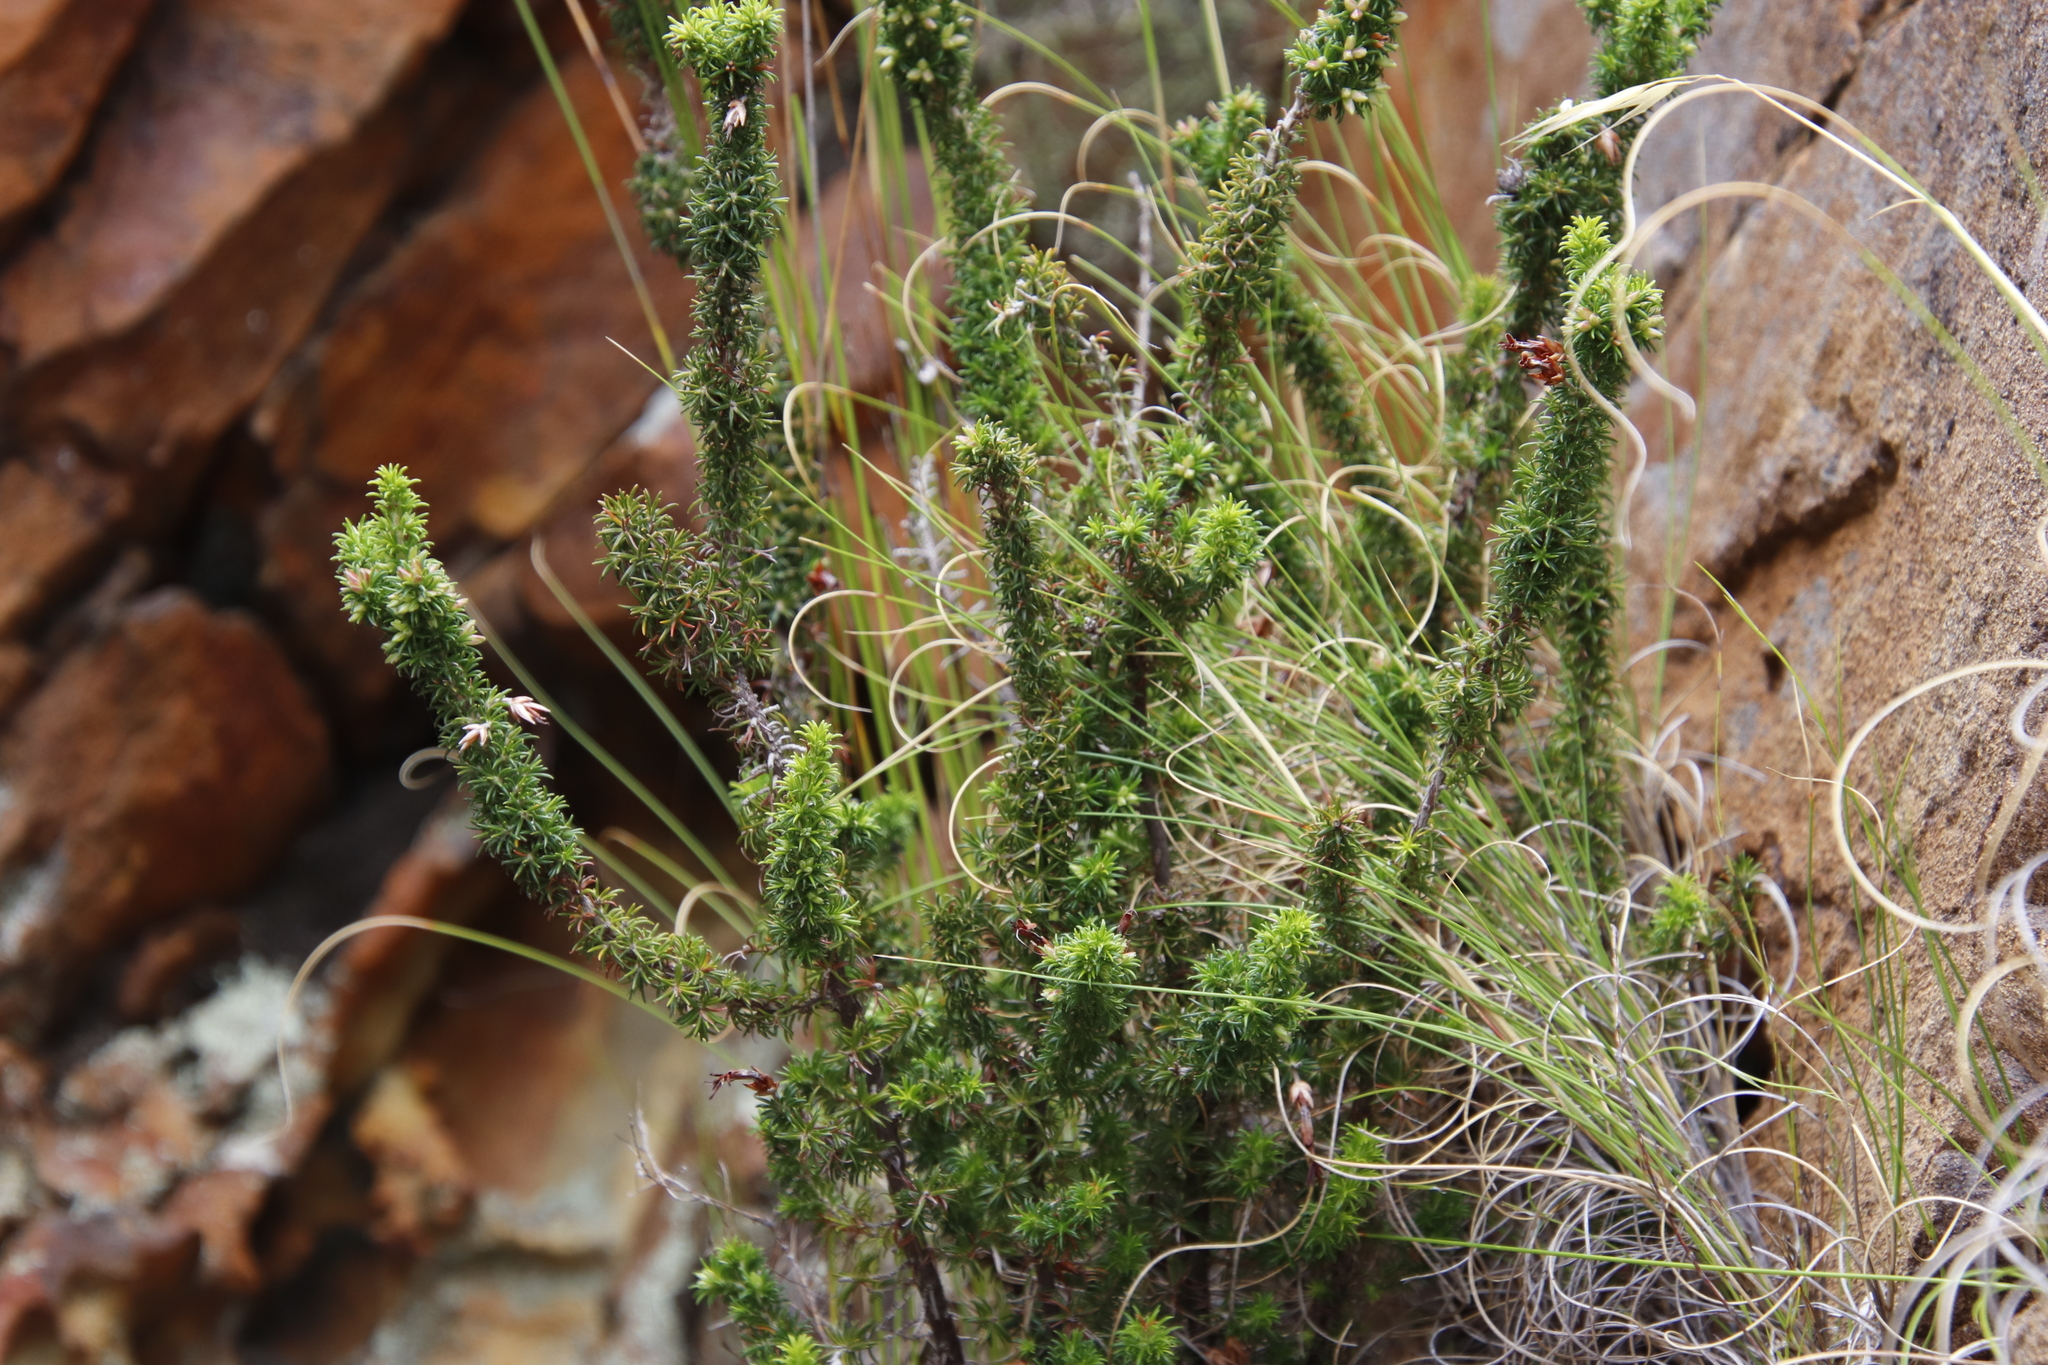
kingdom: Plantae
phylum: Tracheophyta
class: Magnoliopsida
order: Ericales
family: Ericaceae
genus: Erica
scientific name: Erica coccinea
